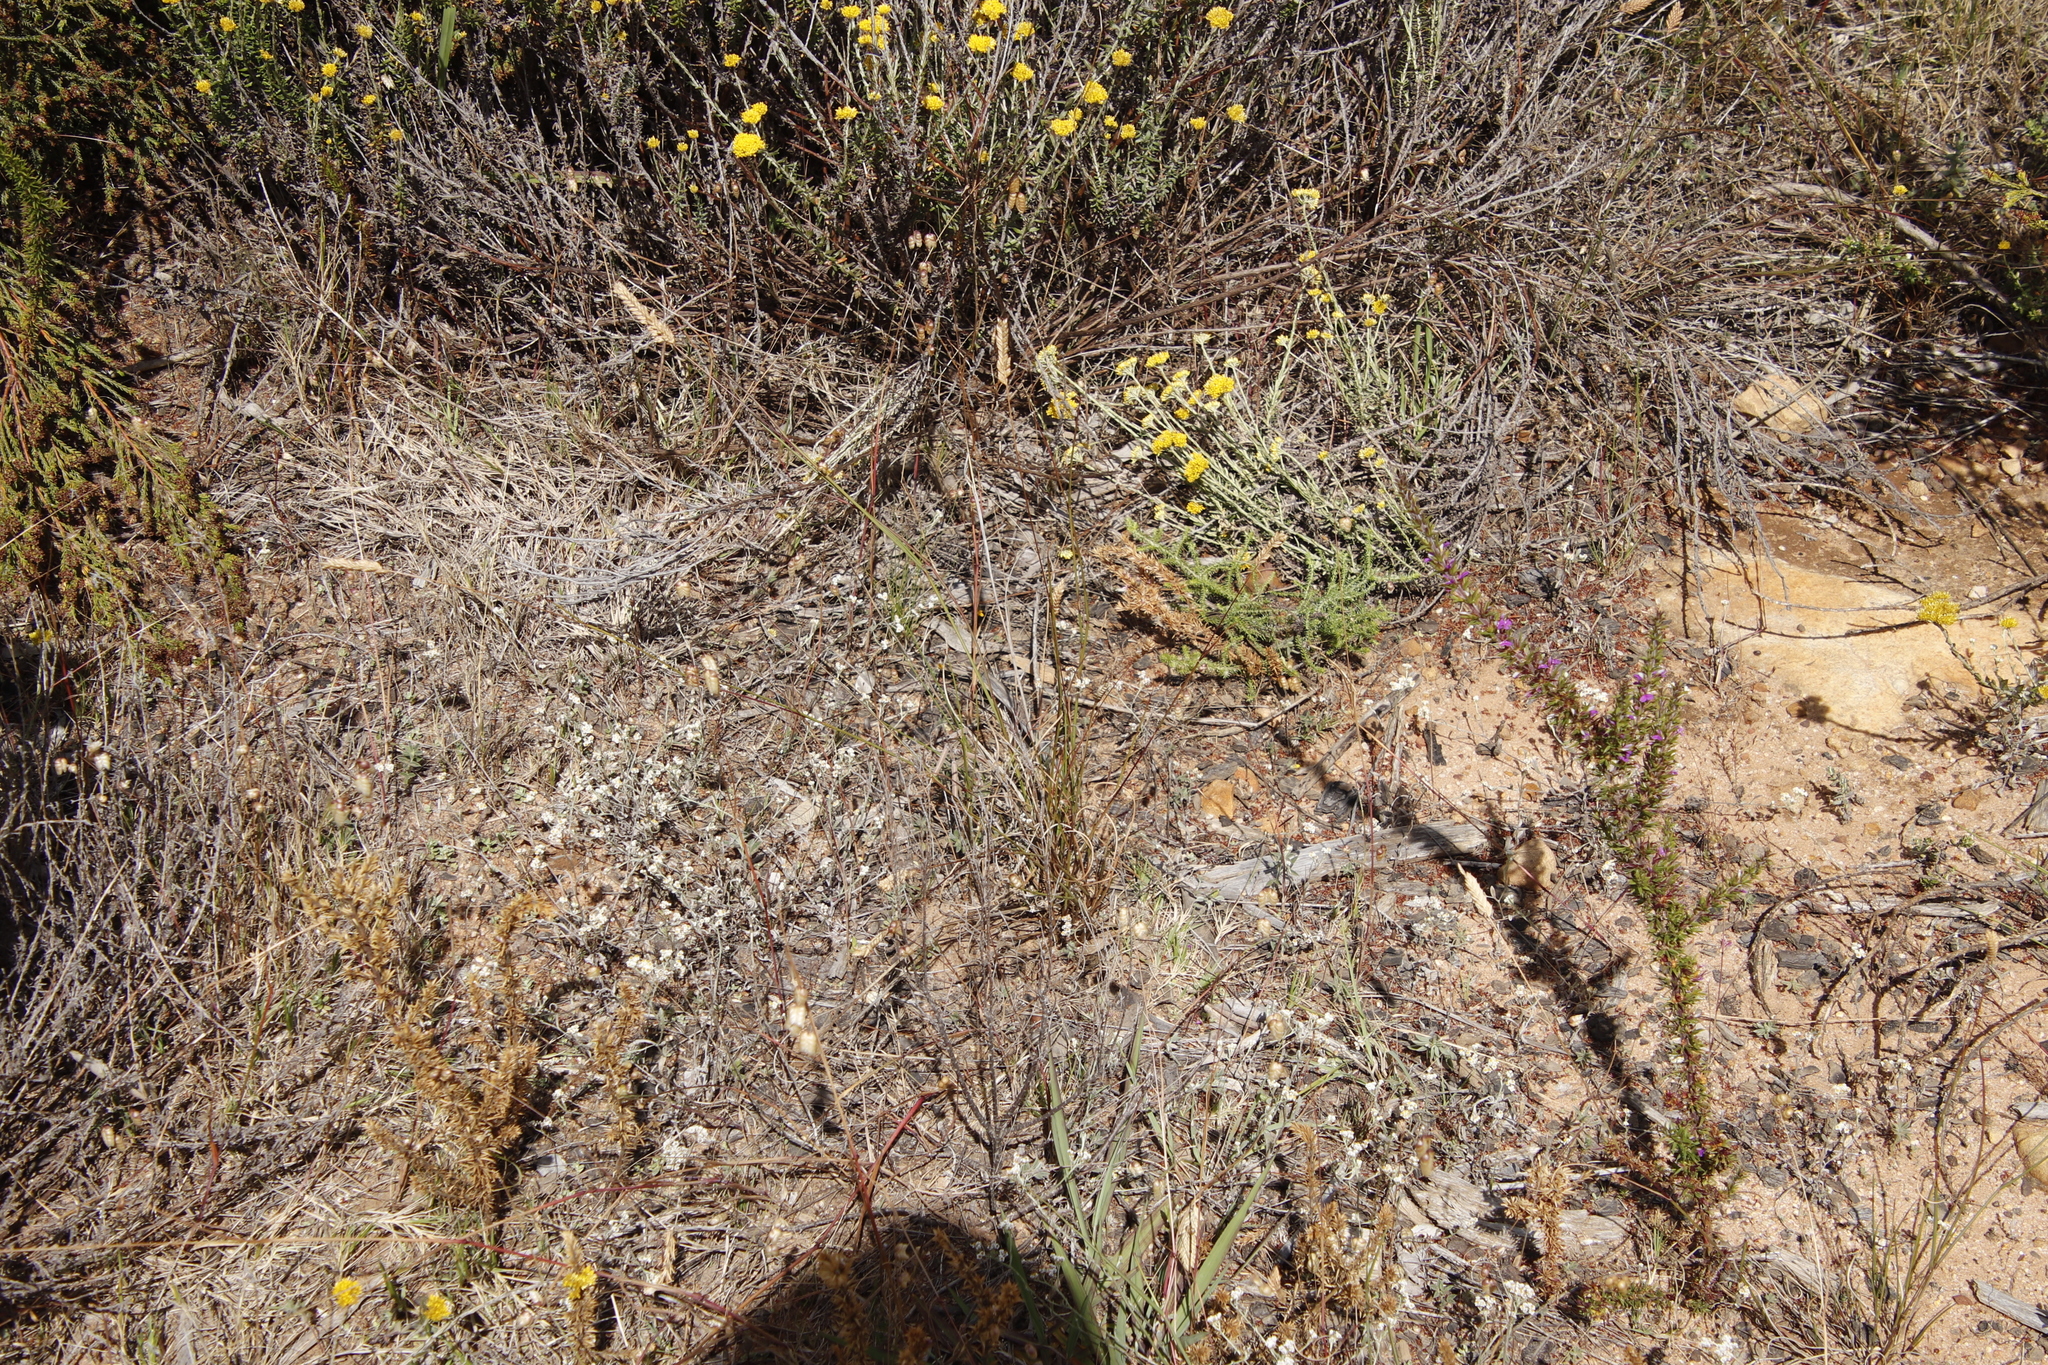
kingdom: Plantae
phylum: Tracheophyta
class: Liliopsida
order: Poales
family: Poaceae
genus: Tribolium
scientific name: Tribolium uniolae
